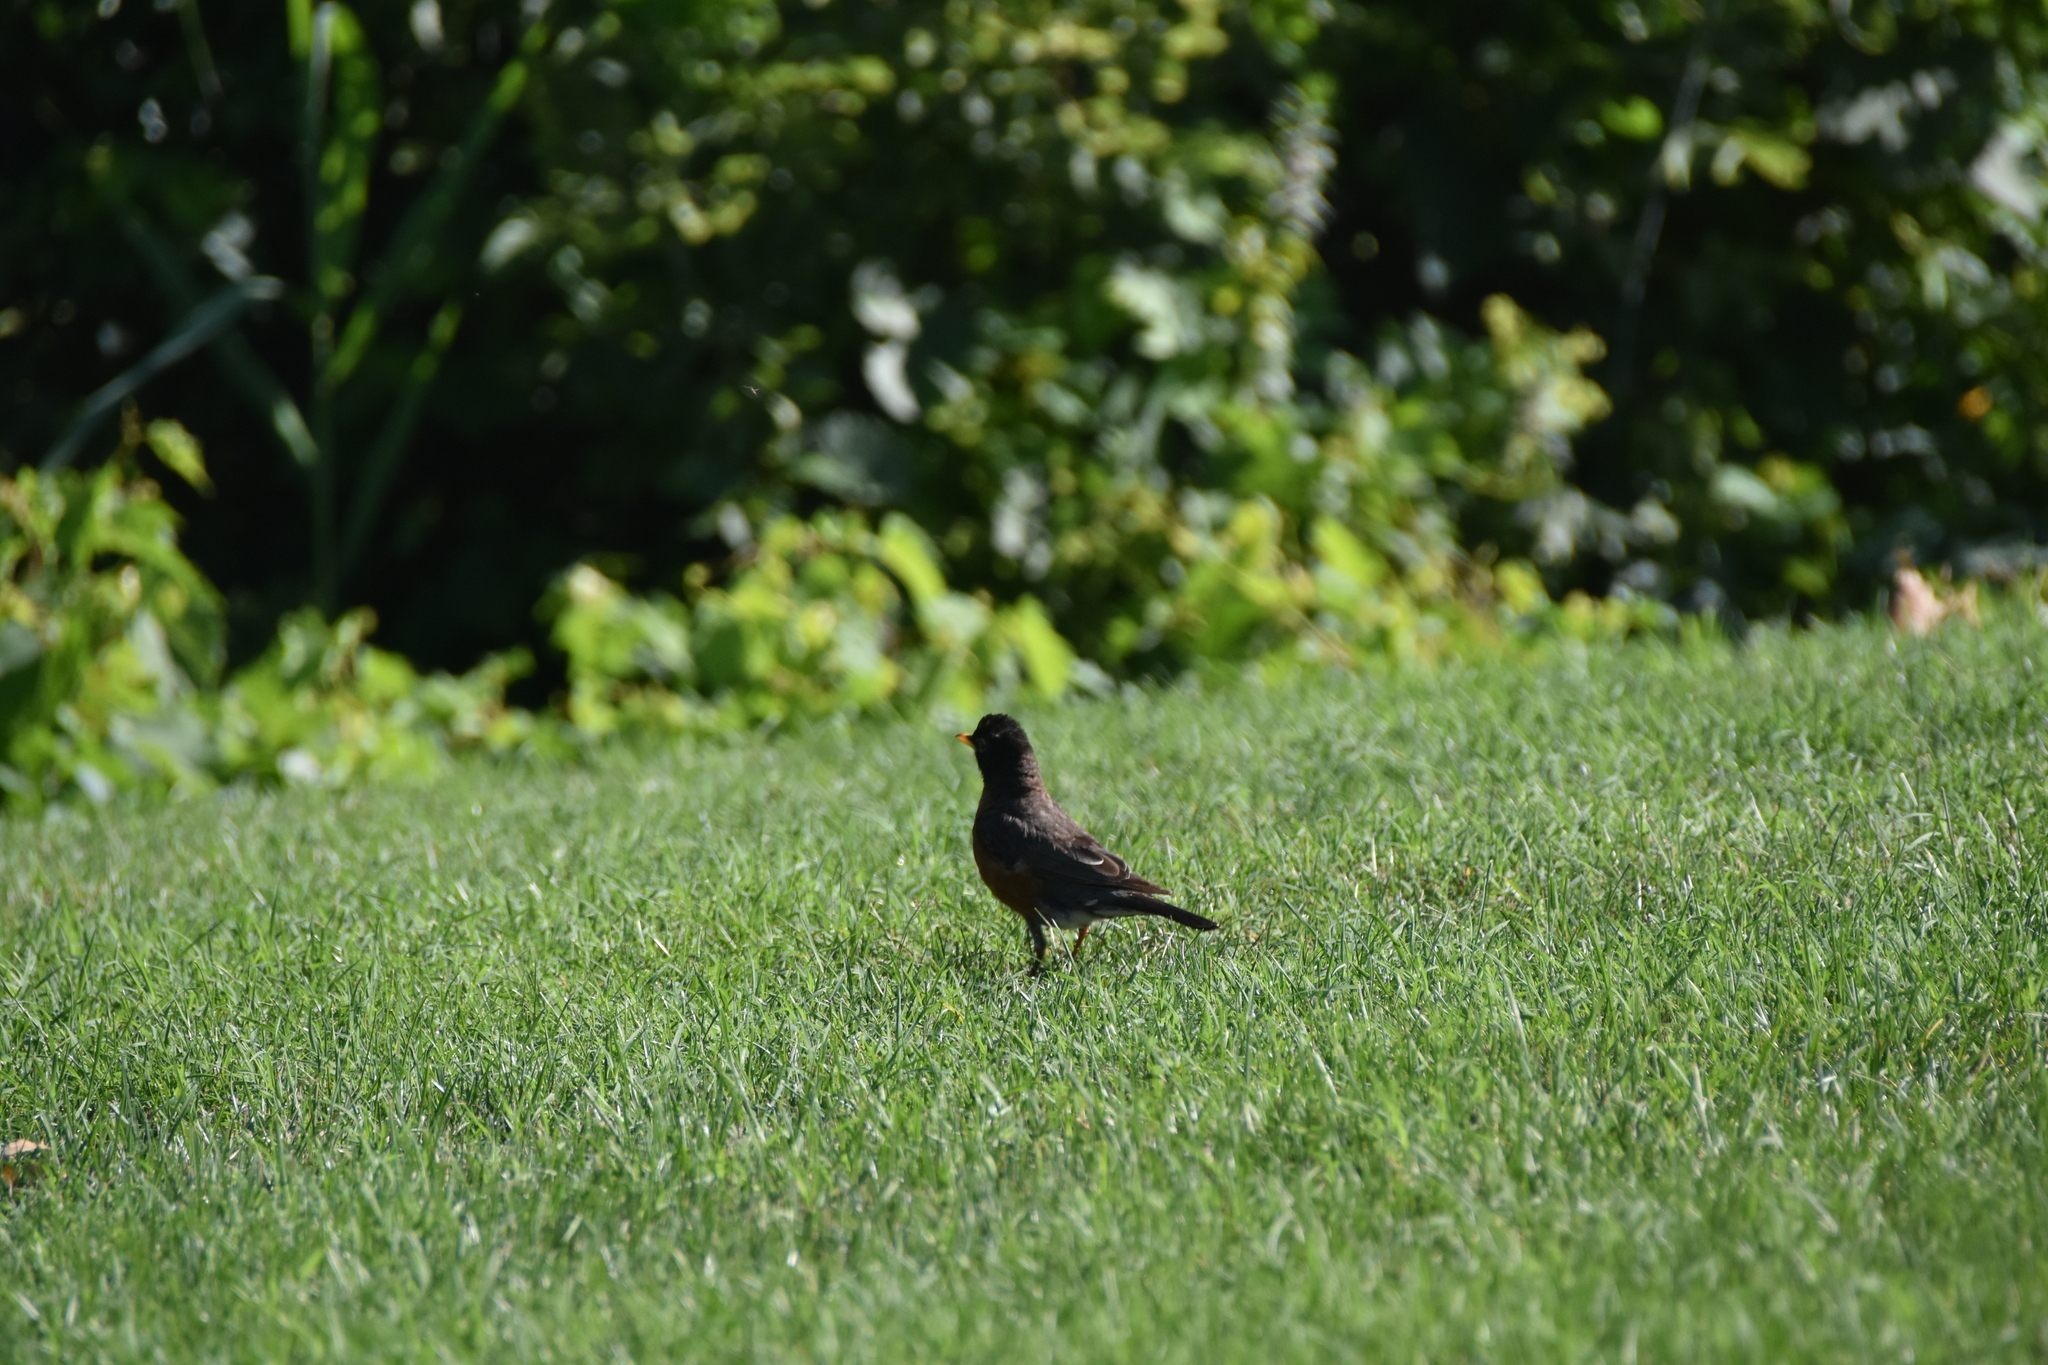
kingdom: Animalia
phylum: Chordata
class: Aves
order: Passeriformes
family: Turdidae
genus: Turdus
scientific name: Turdus migratorius
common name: American robin
